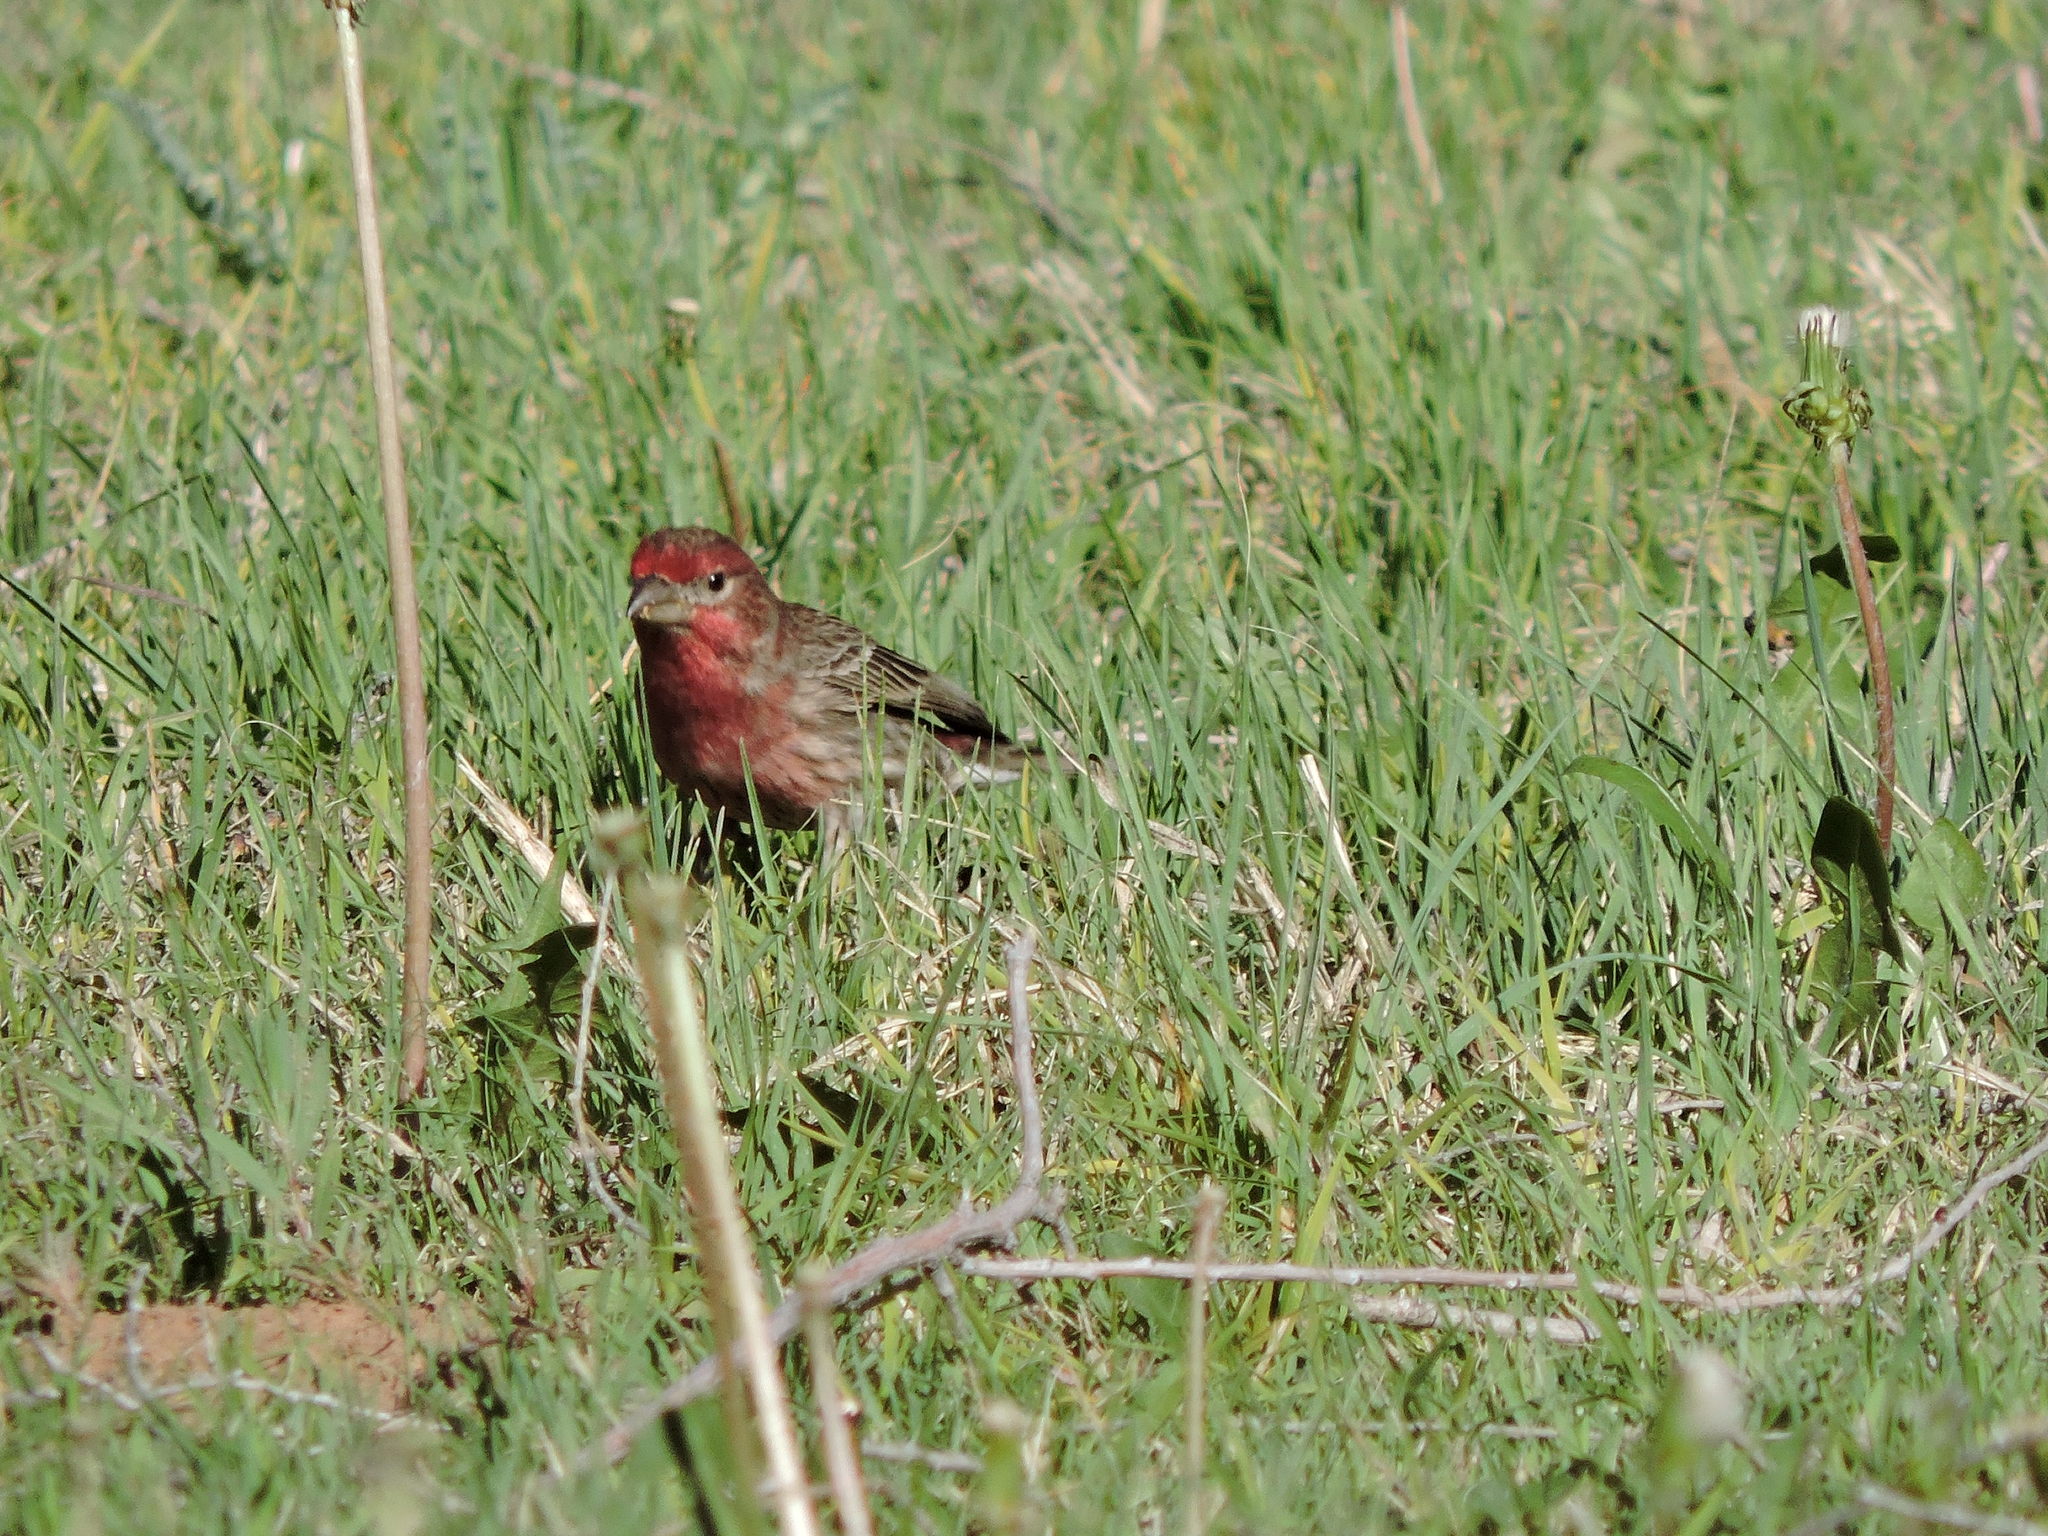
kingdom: Animalia
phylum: Chordata
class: Aves
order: Passeriformes
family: Fringillidae
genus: Haemorhous
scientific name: Haemorhous mexicanus
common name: House finch
